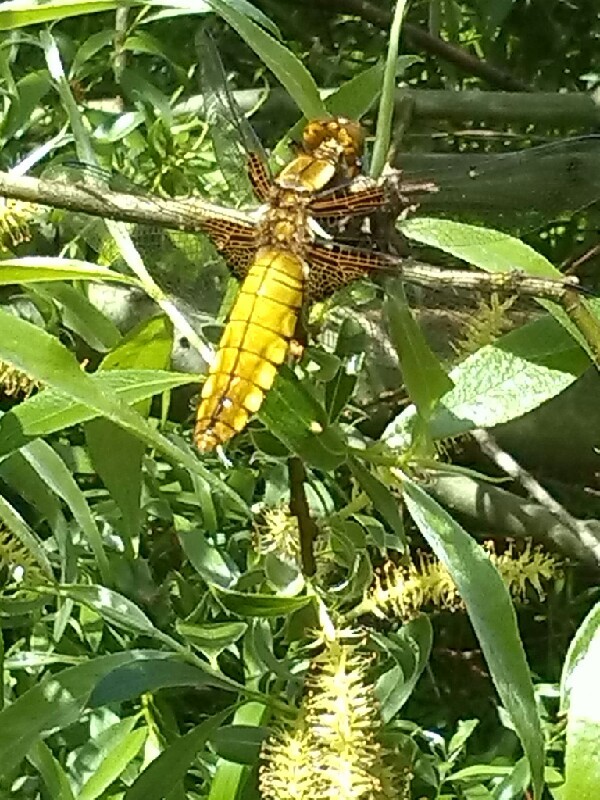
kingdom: Animalia
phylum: Arthropoda
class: Insecta
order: Odonata
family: Libellulidae
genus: Libellula
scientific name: Libellula depressa
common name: Broad-bodied chaser
